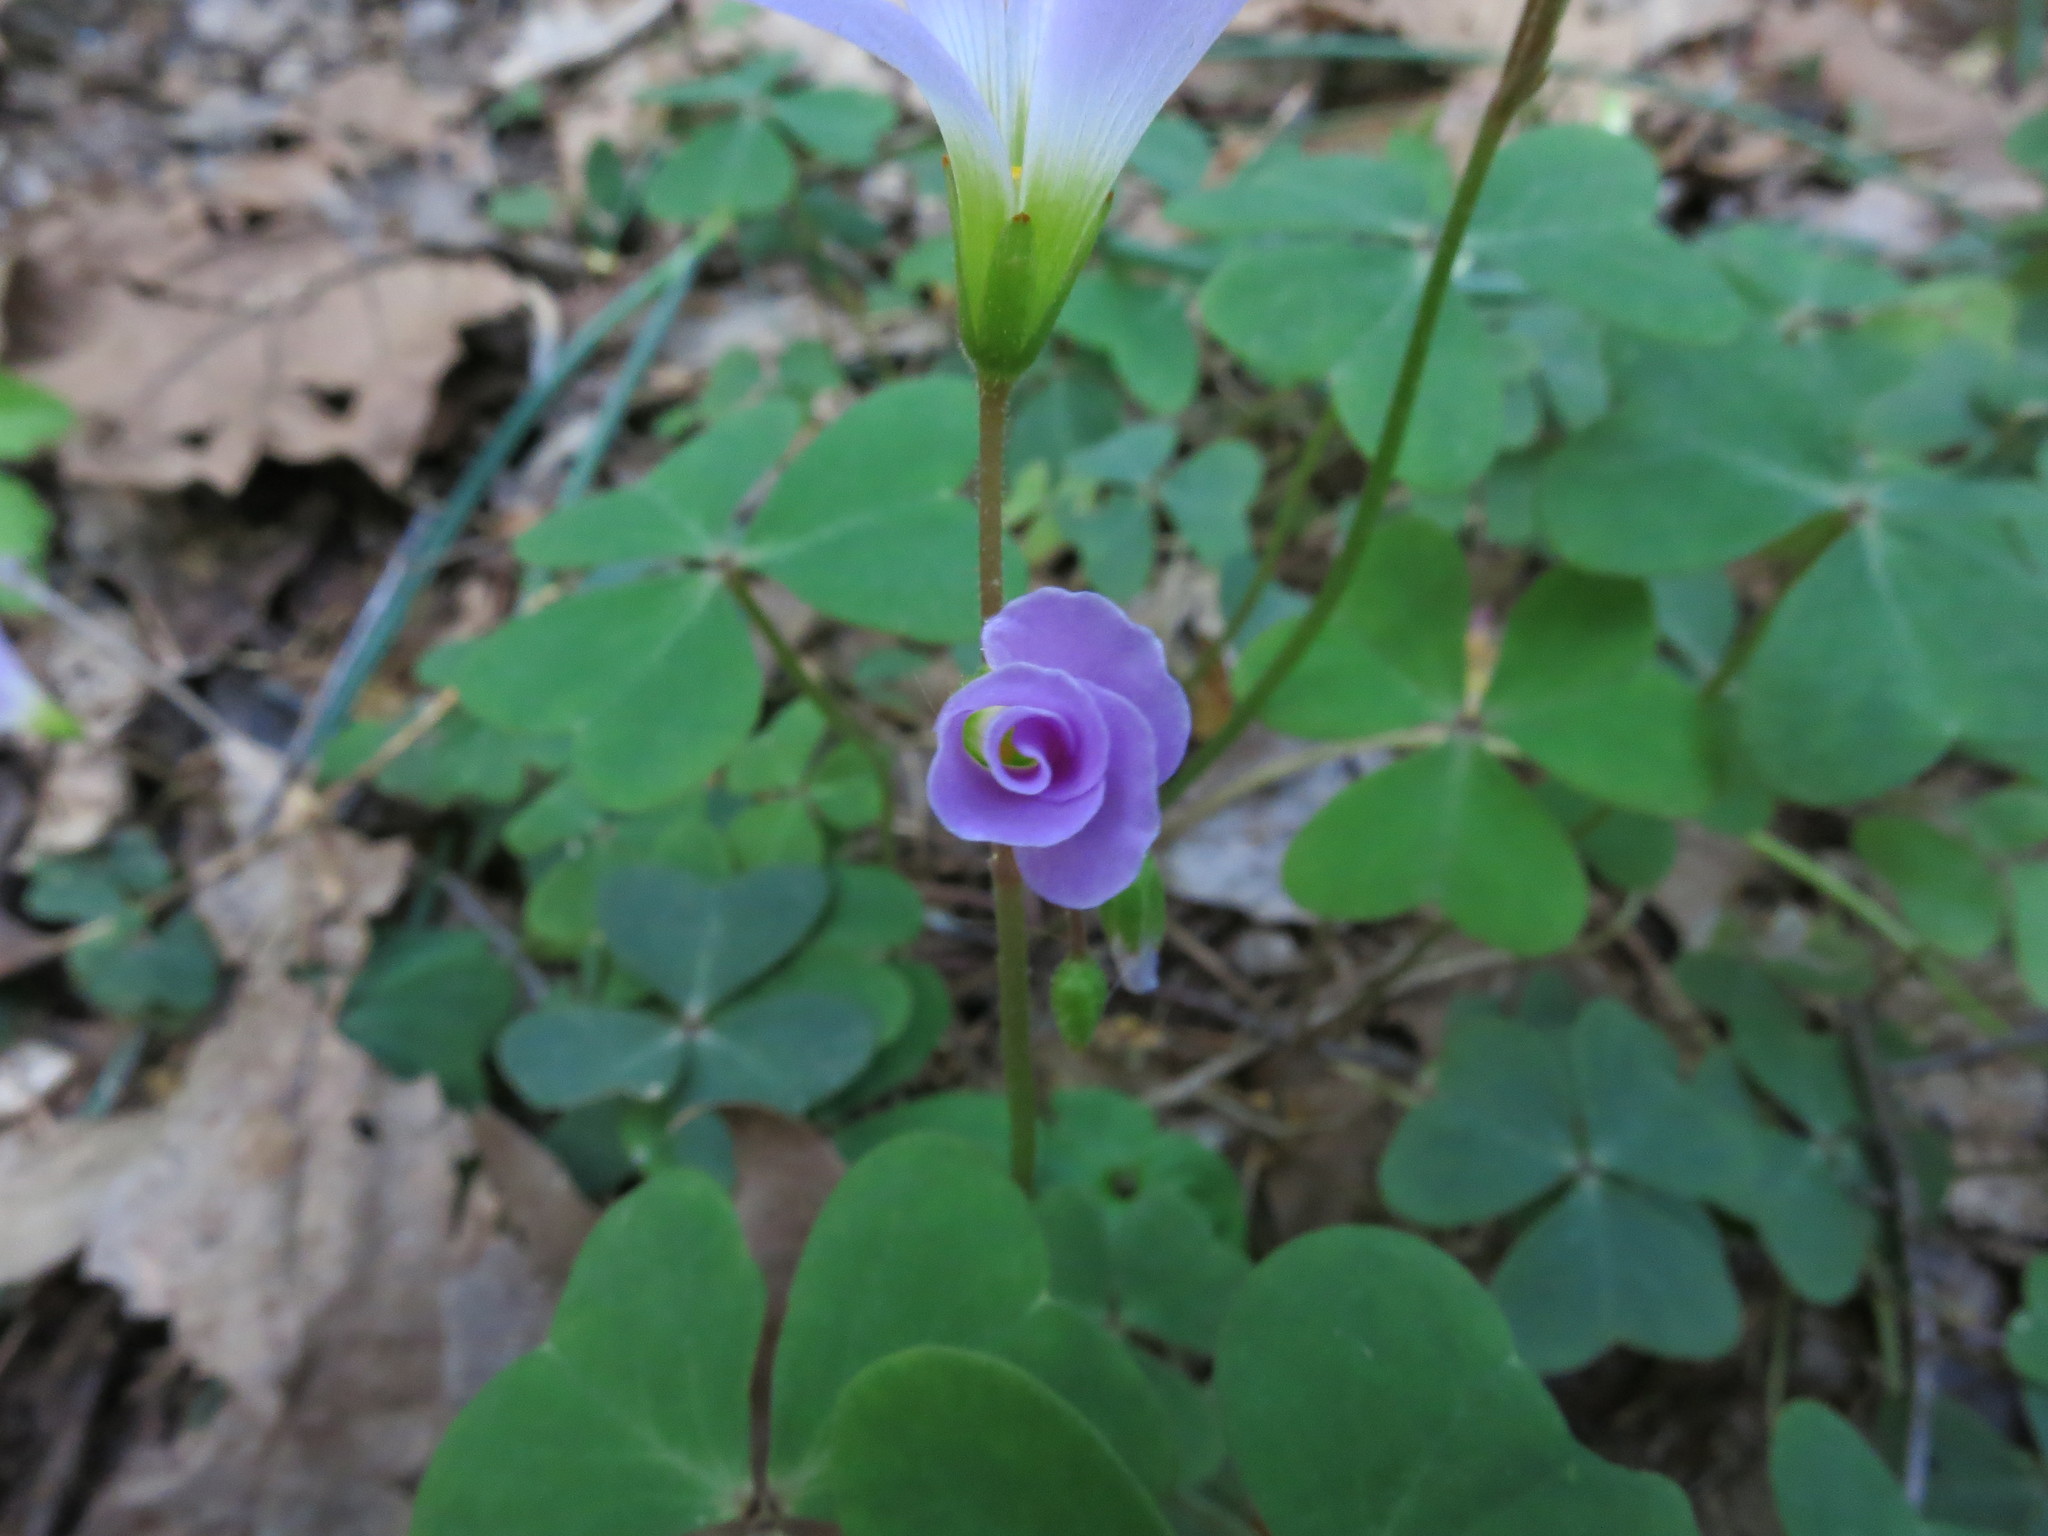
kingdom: Plantae
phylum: Tracheophyta
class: Magnoliopsida
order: Oxalidales
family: Oxalidaceae
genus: Oxalis
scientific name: Oxalis violacea
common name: Violet wood-sorrel
